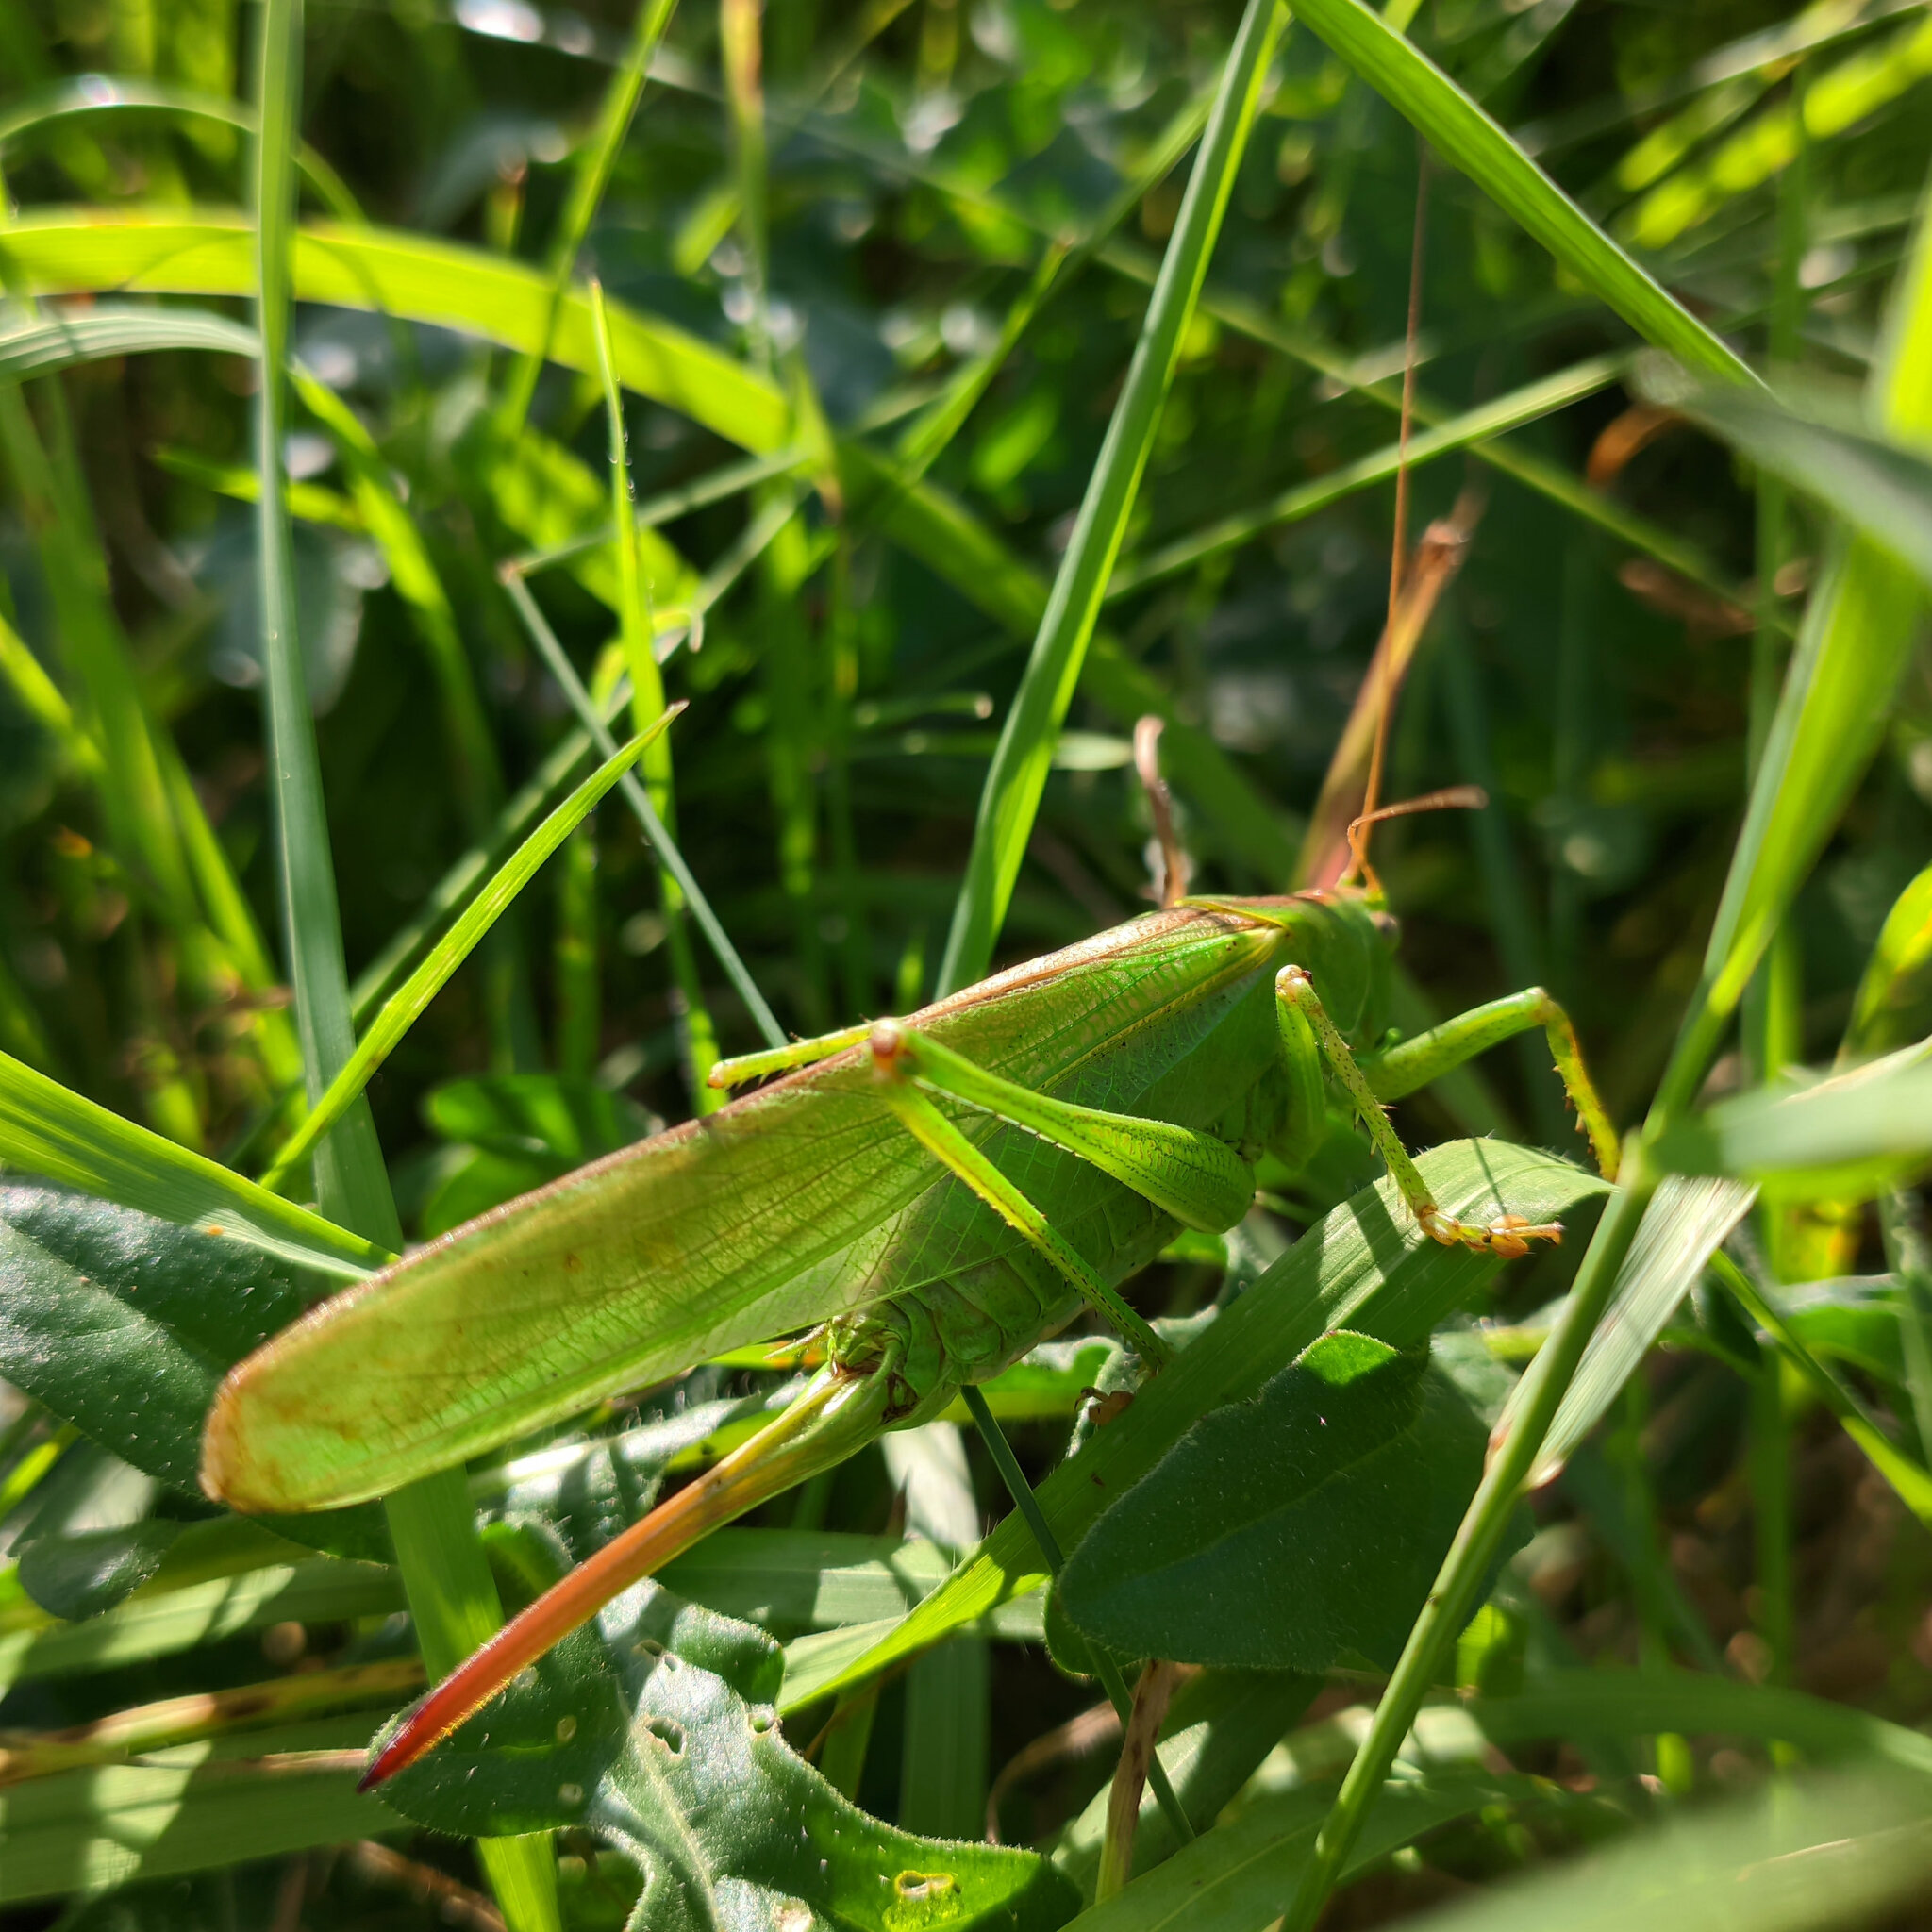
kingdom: Animalia
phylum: Arthropoda
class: Insecta
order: Orthoptera
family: Tettigoniidae
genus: Tettigonia
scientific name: Tettigonia viridissima
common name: Great green bush-cricket
